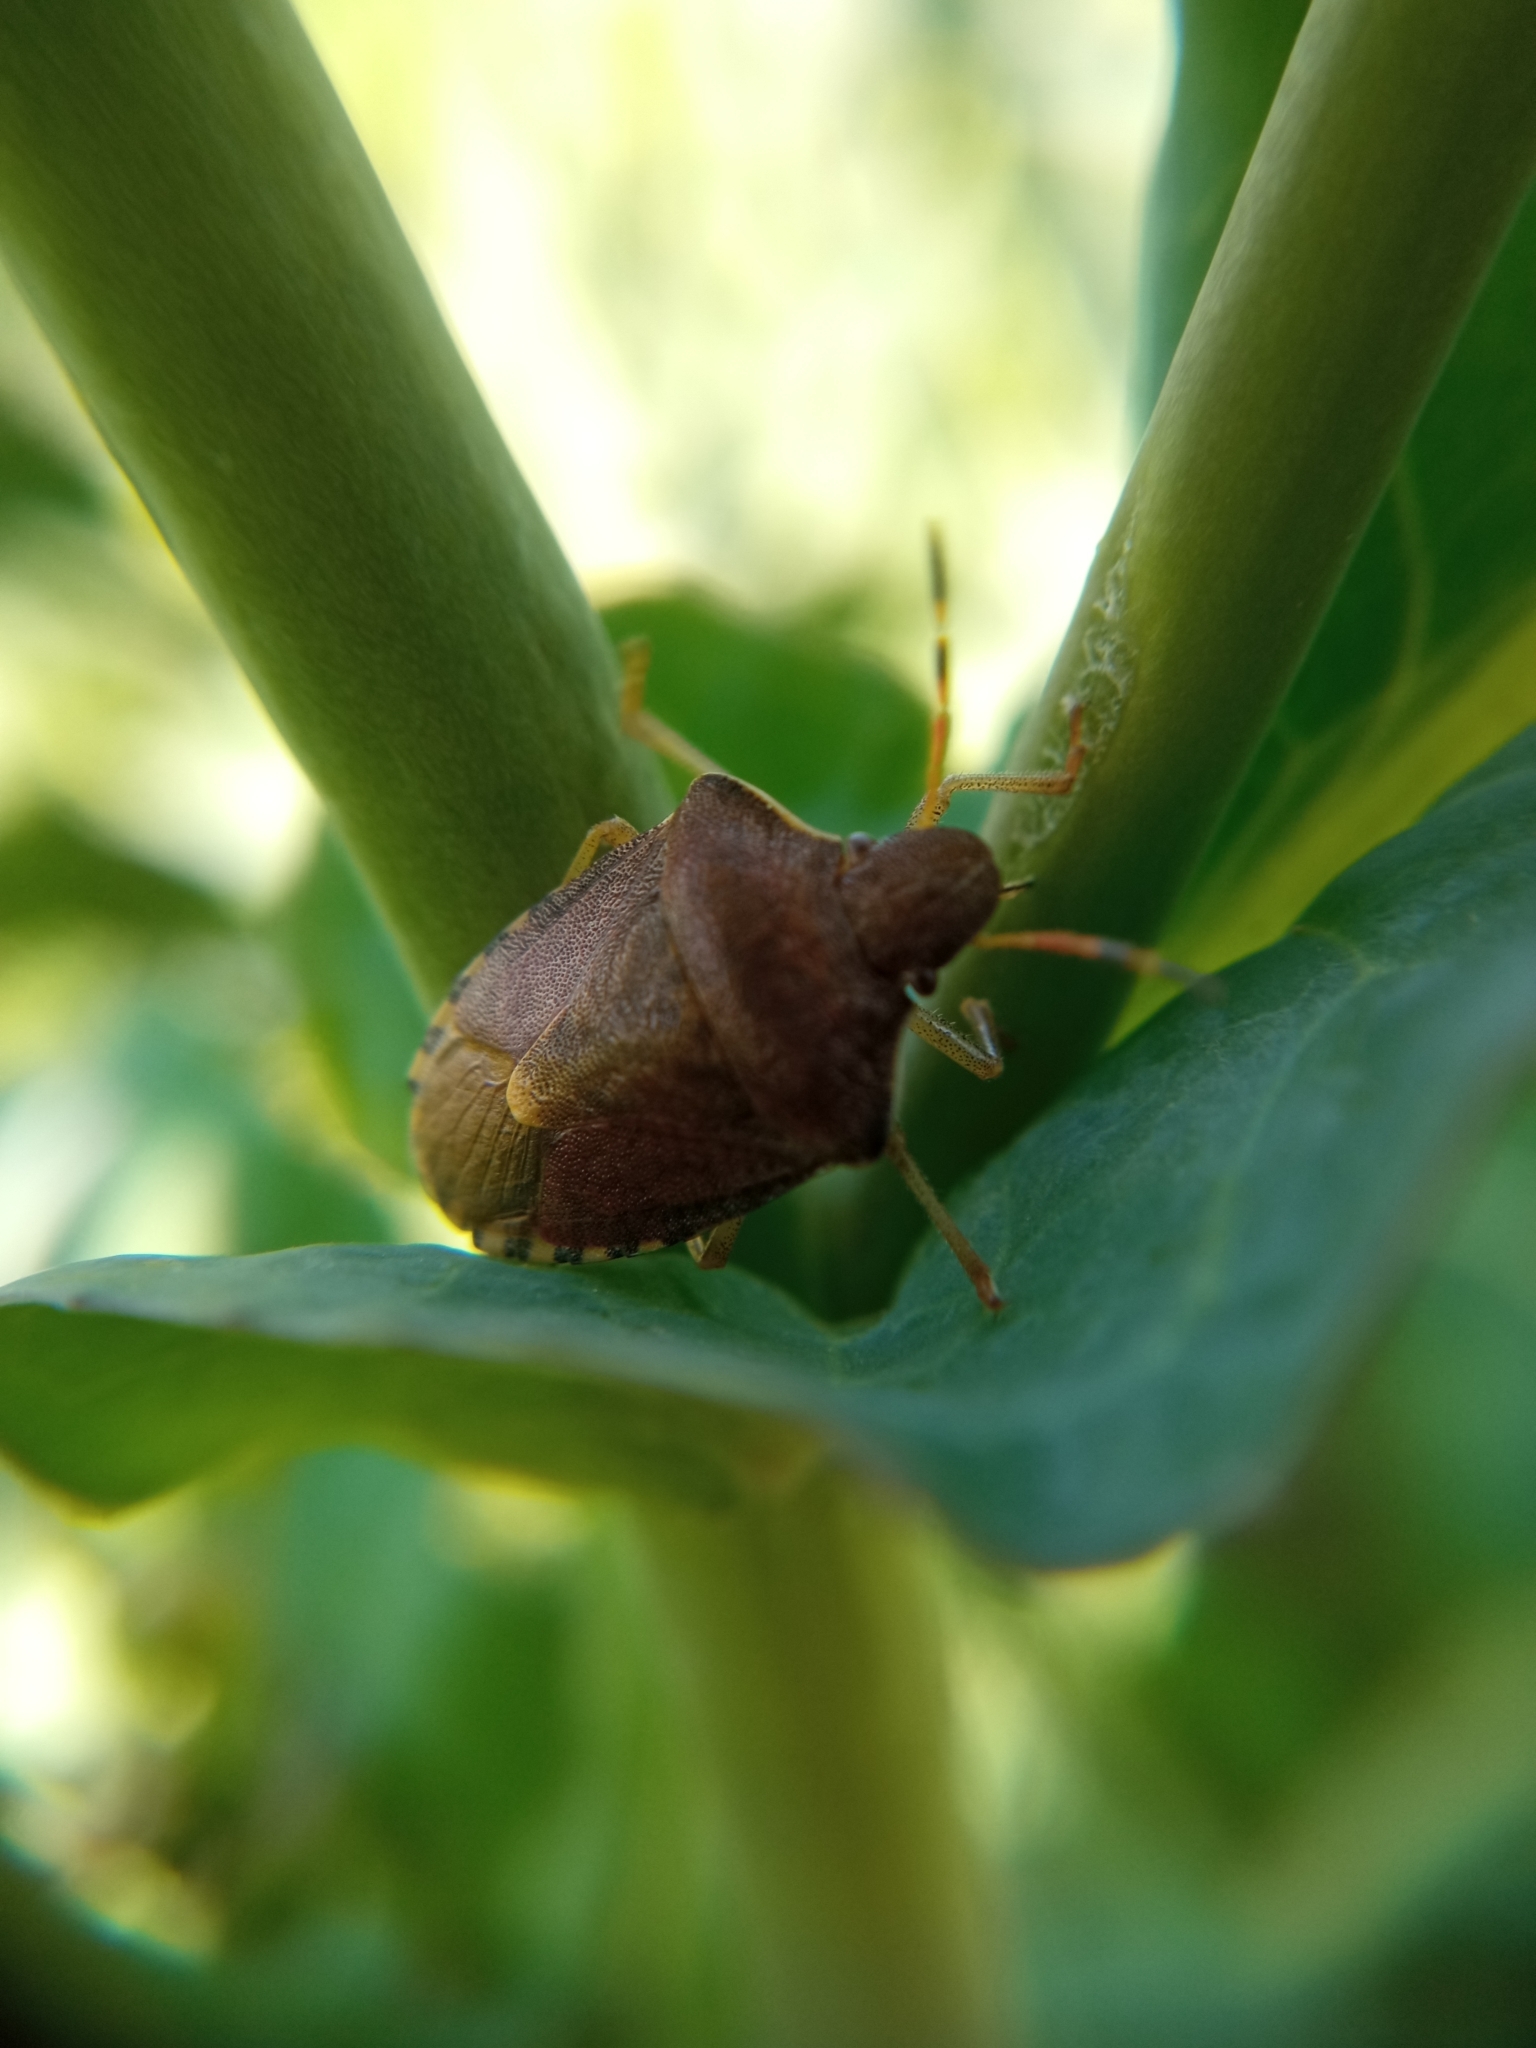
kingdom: Animalia
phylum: Arthropoda
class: Insecta
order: Hemiptera
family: Pentatomidae
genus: Holcostethus
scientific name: Holcostethus strictus
